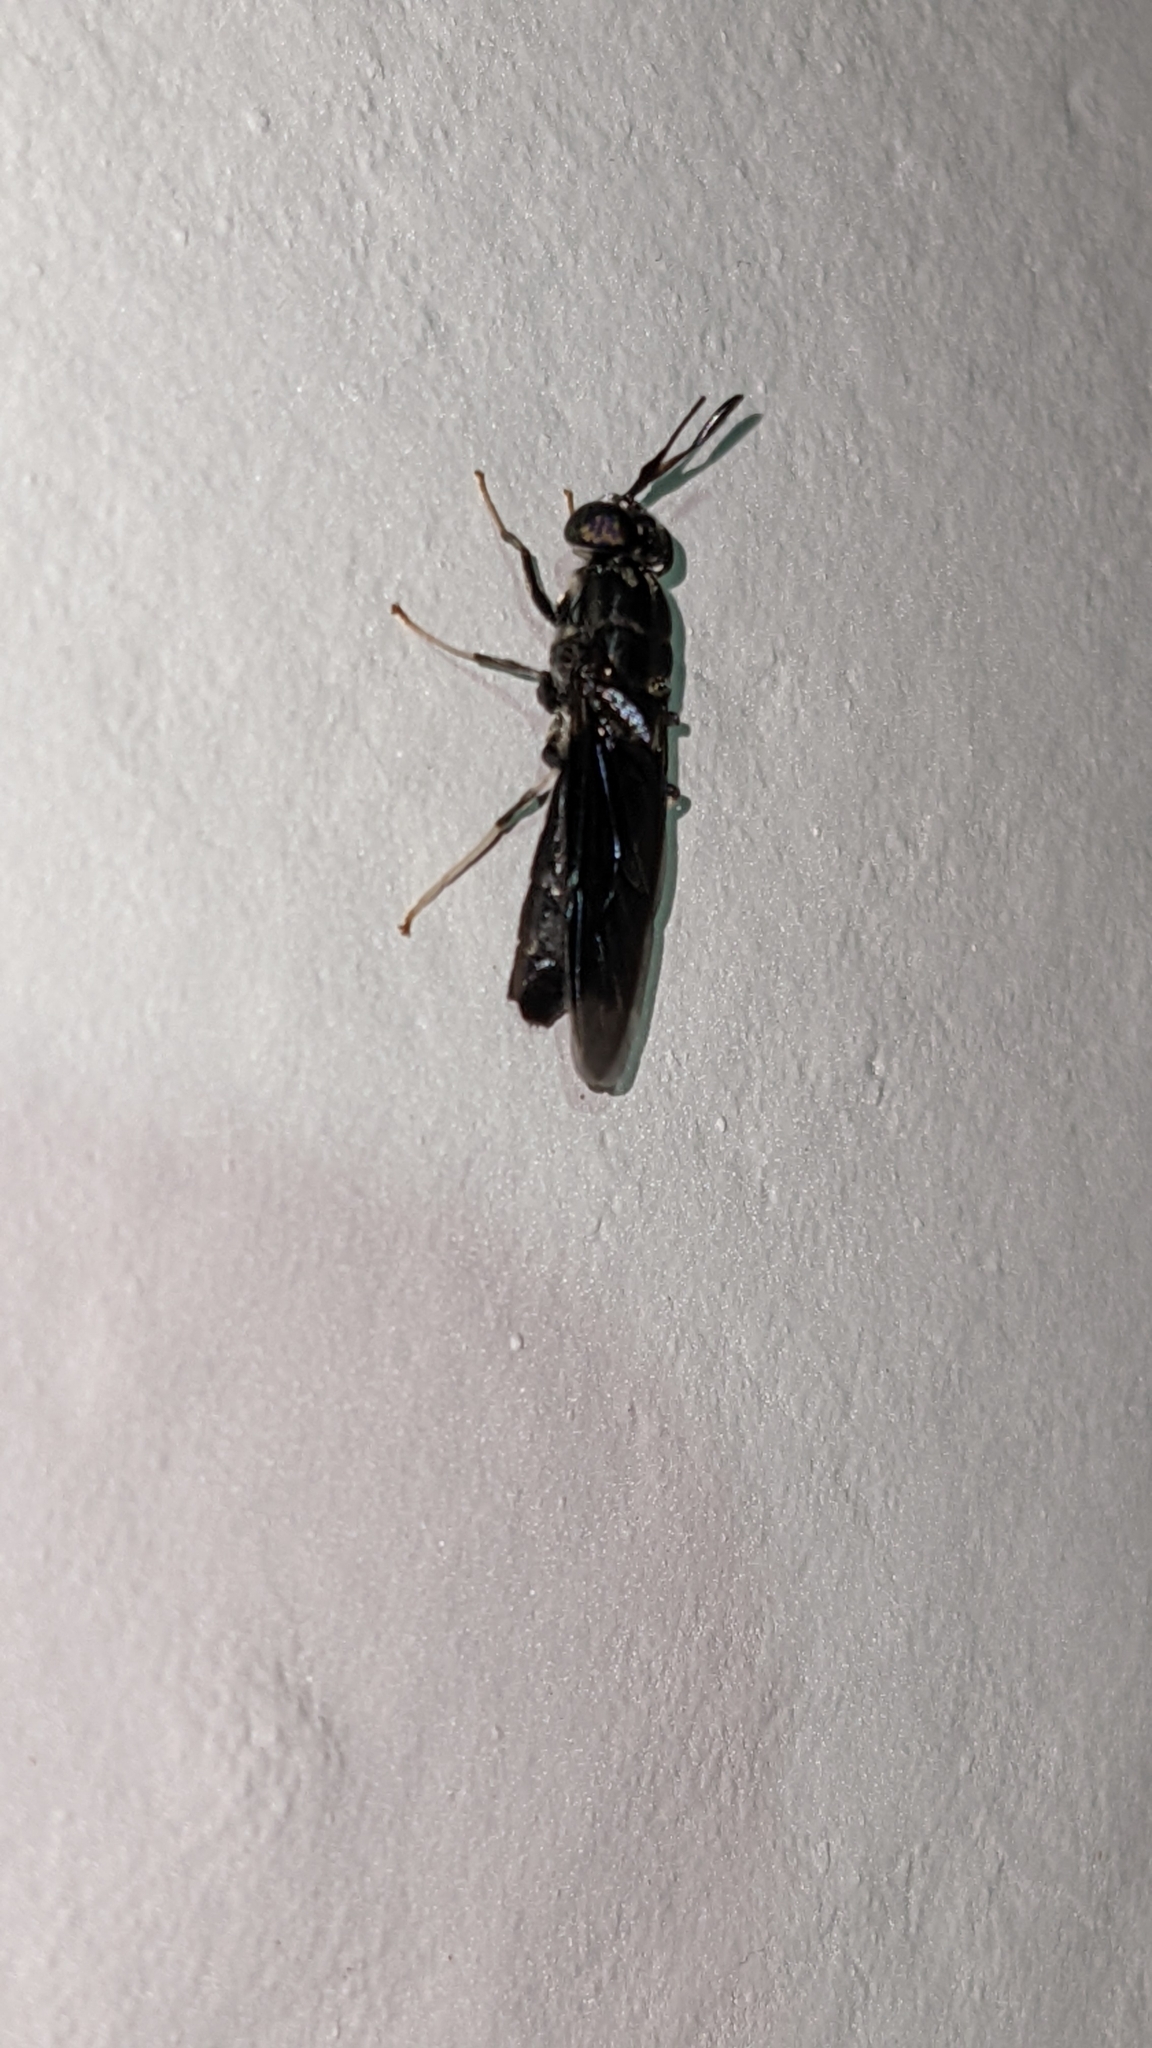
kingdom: Animalia
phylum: Arthropoda
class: Insecta
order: Diptera
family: Stratiomyidae
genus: Hermetia
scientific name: Hermetia illucens
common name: Black soldier fly
